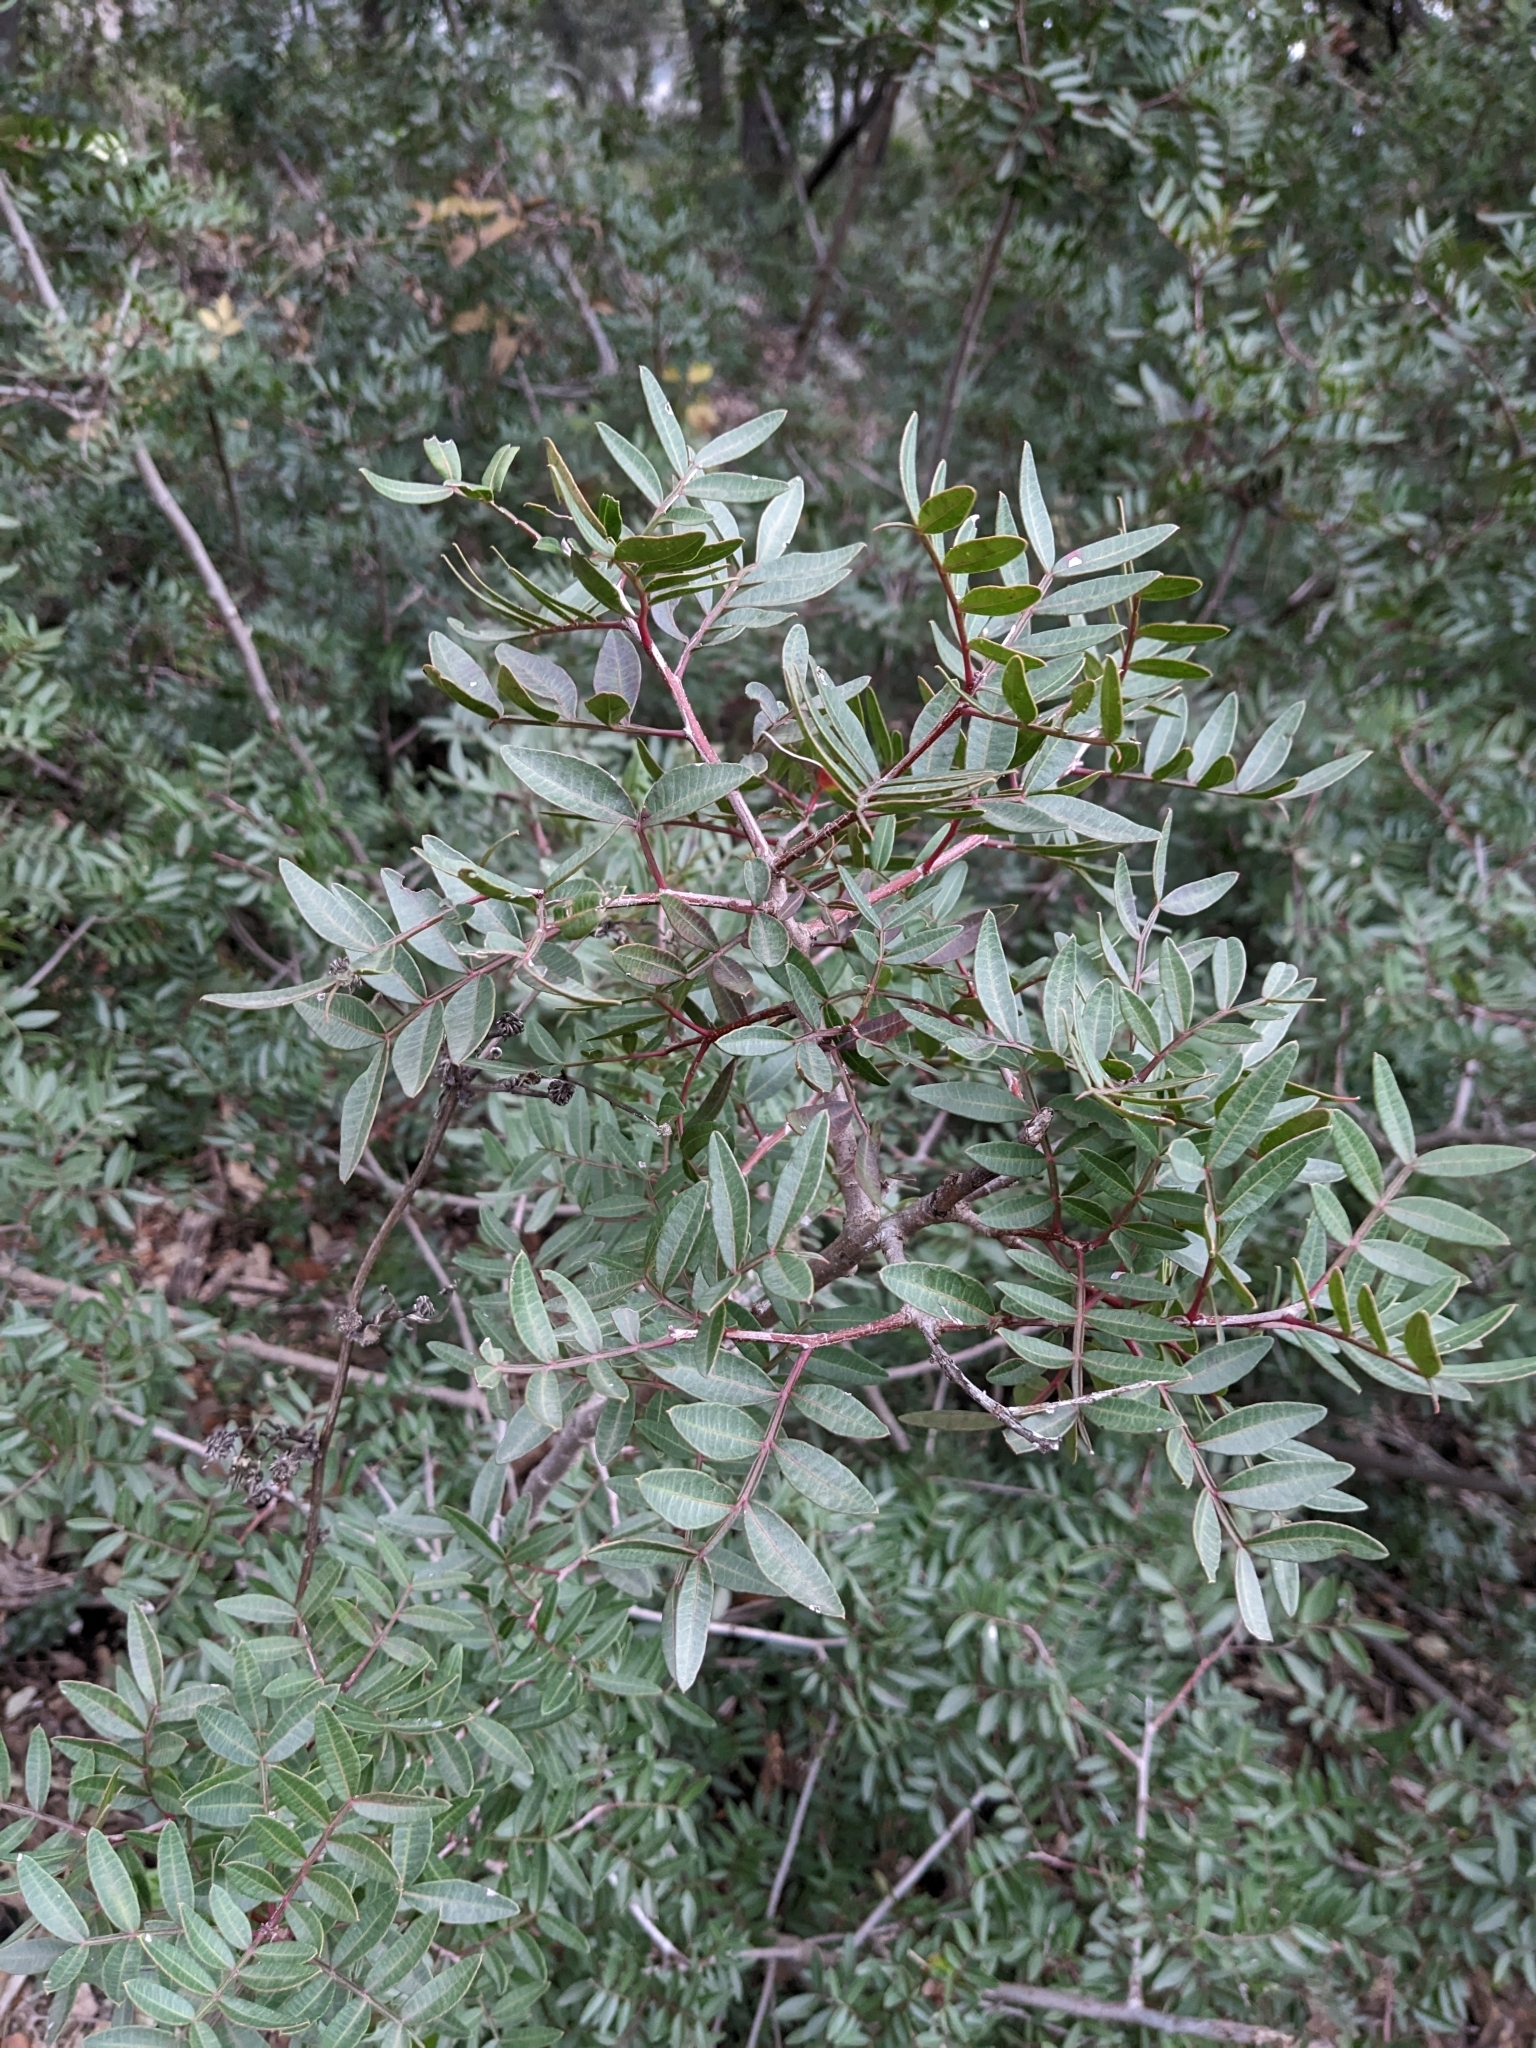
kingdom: Plantae
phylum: Tracheophyta
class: Magnoliopsida
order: Sapindales
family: Anacardiaceae
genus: Pistacia
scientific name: Pistacia lentiscus
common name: Lentisk
